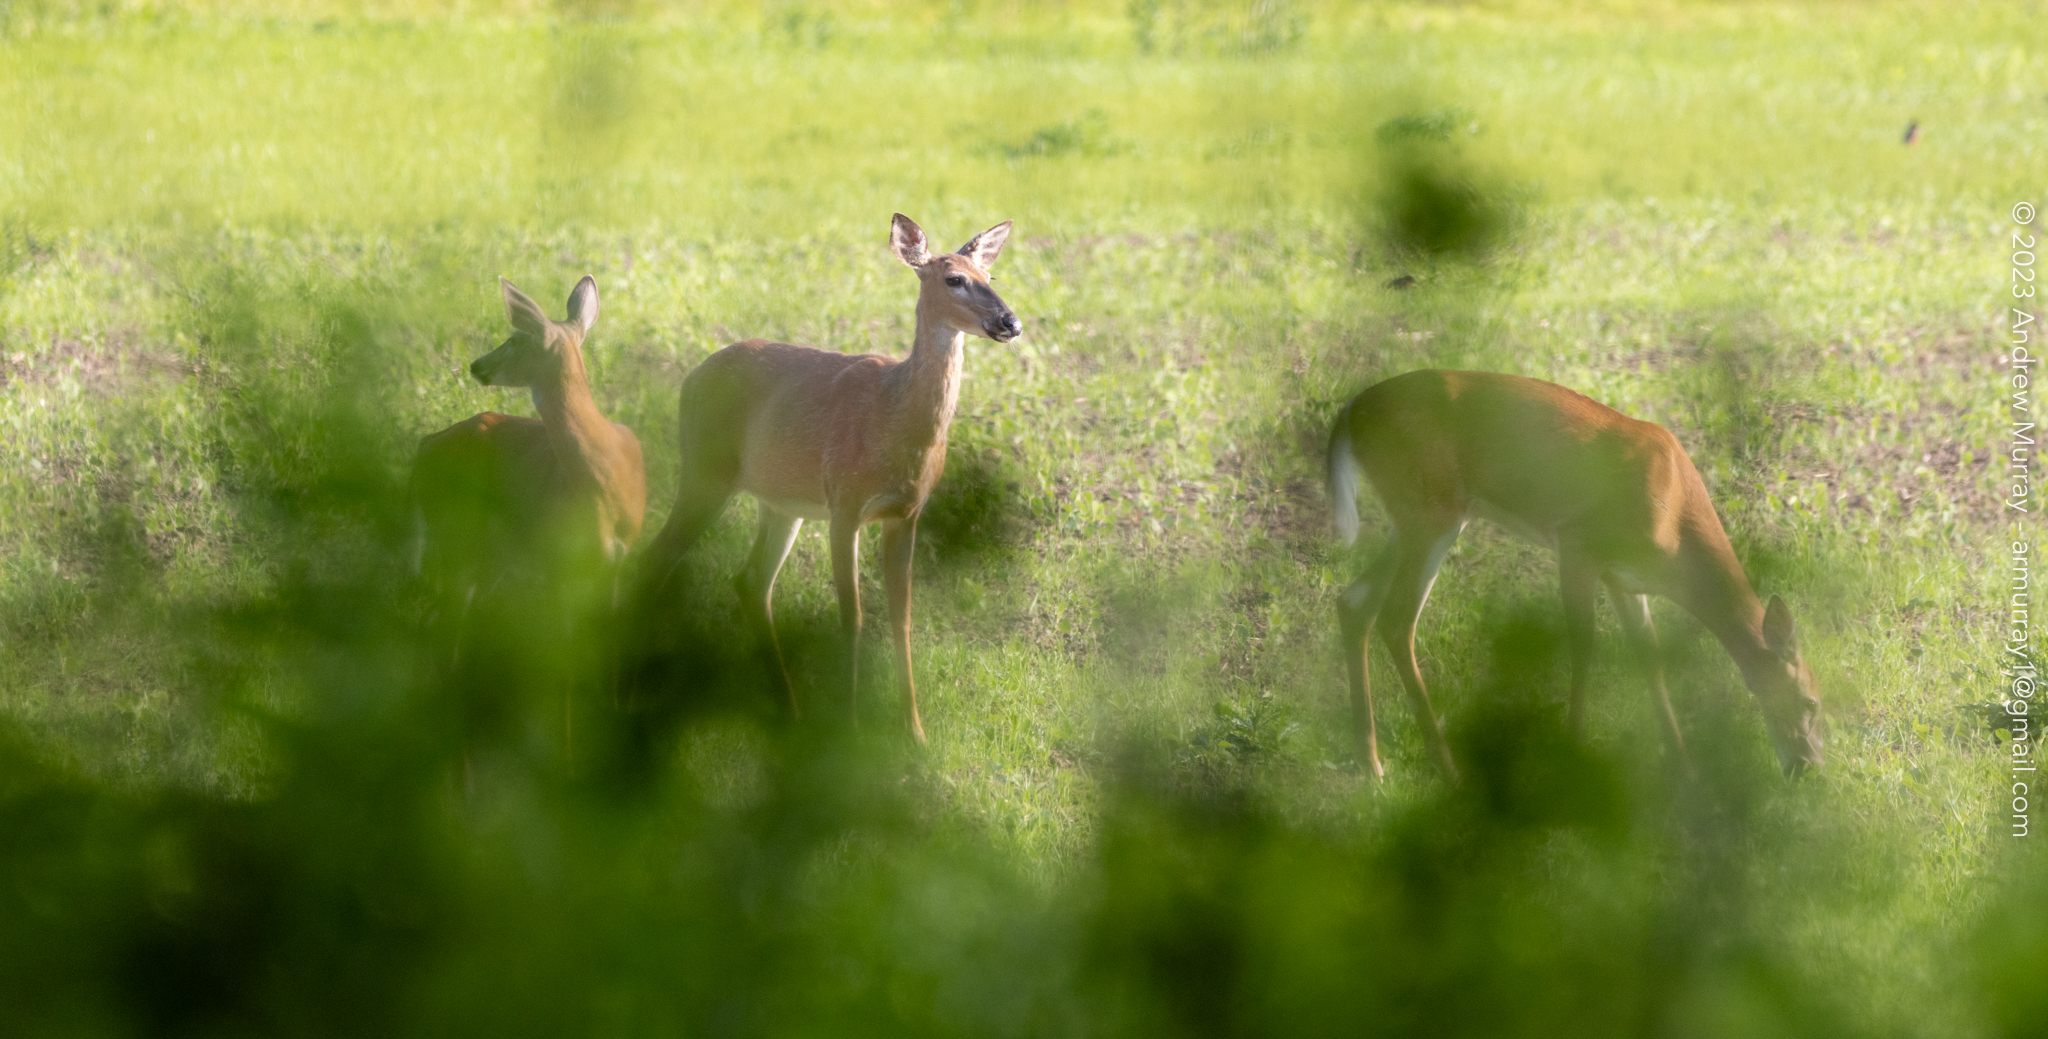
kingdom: Animalia
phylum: Chordata
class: Mammalia
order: Artiodactyla
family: Cervidae
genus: Odocoileus
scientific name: Odocoileus virginianus
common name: White-tailed deer
